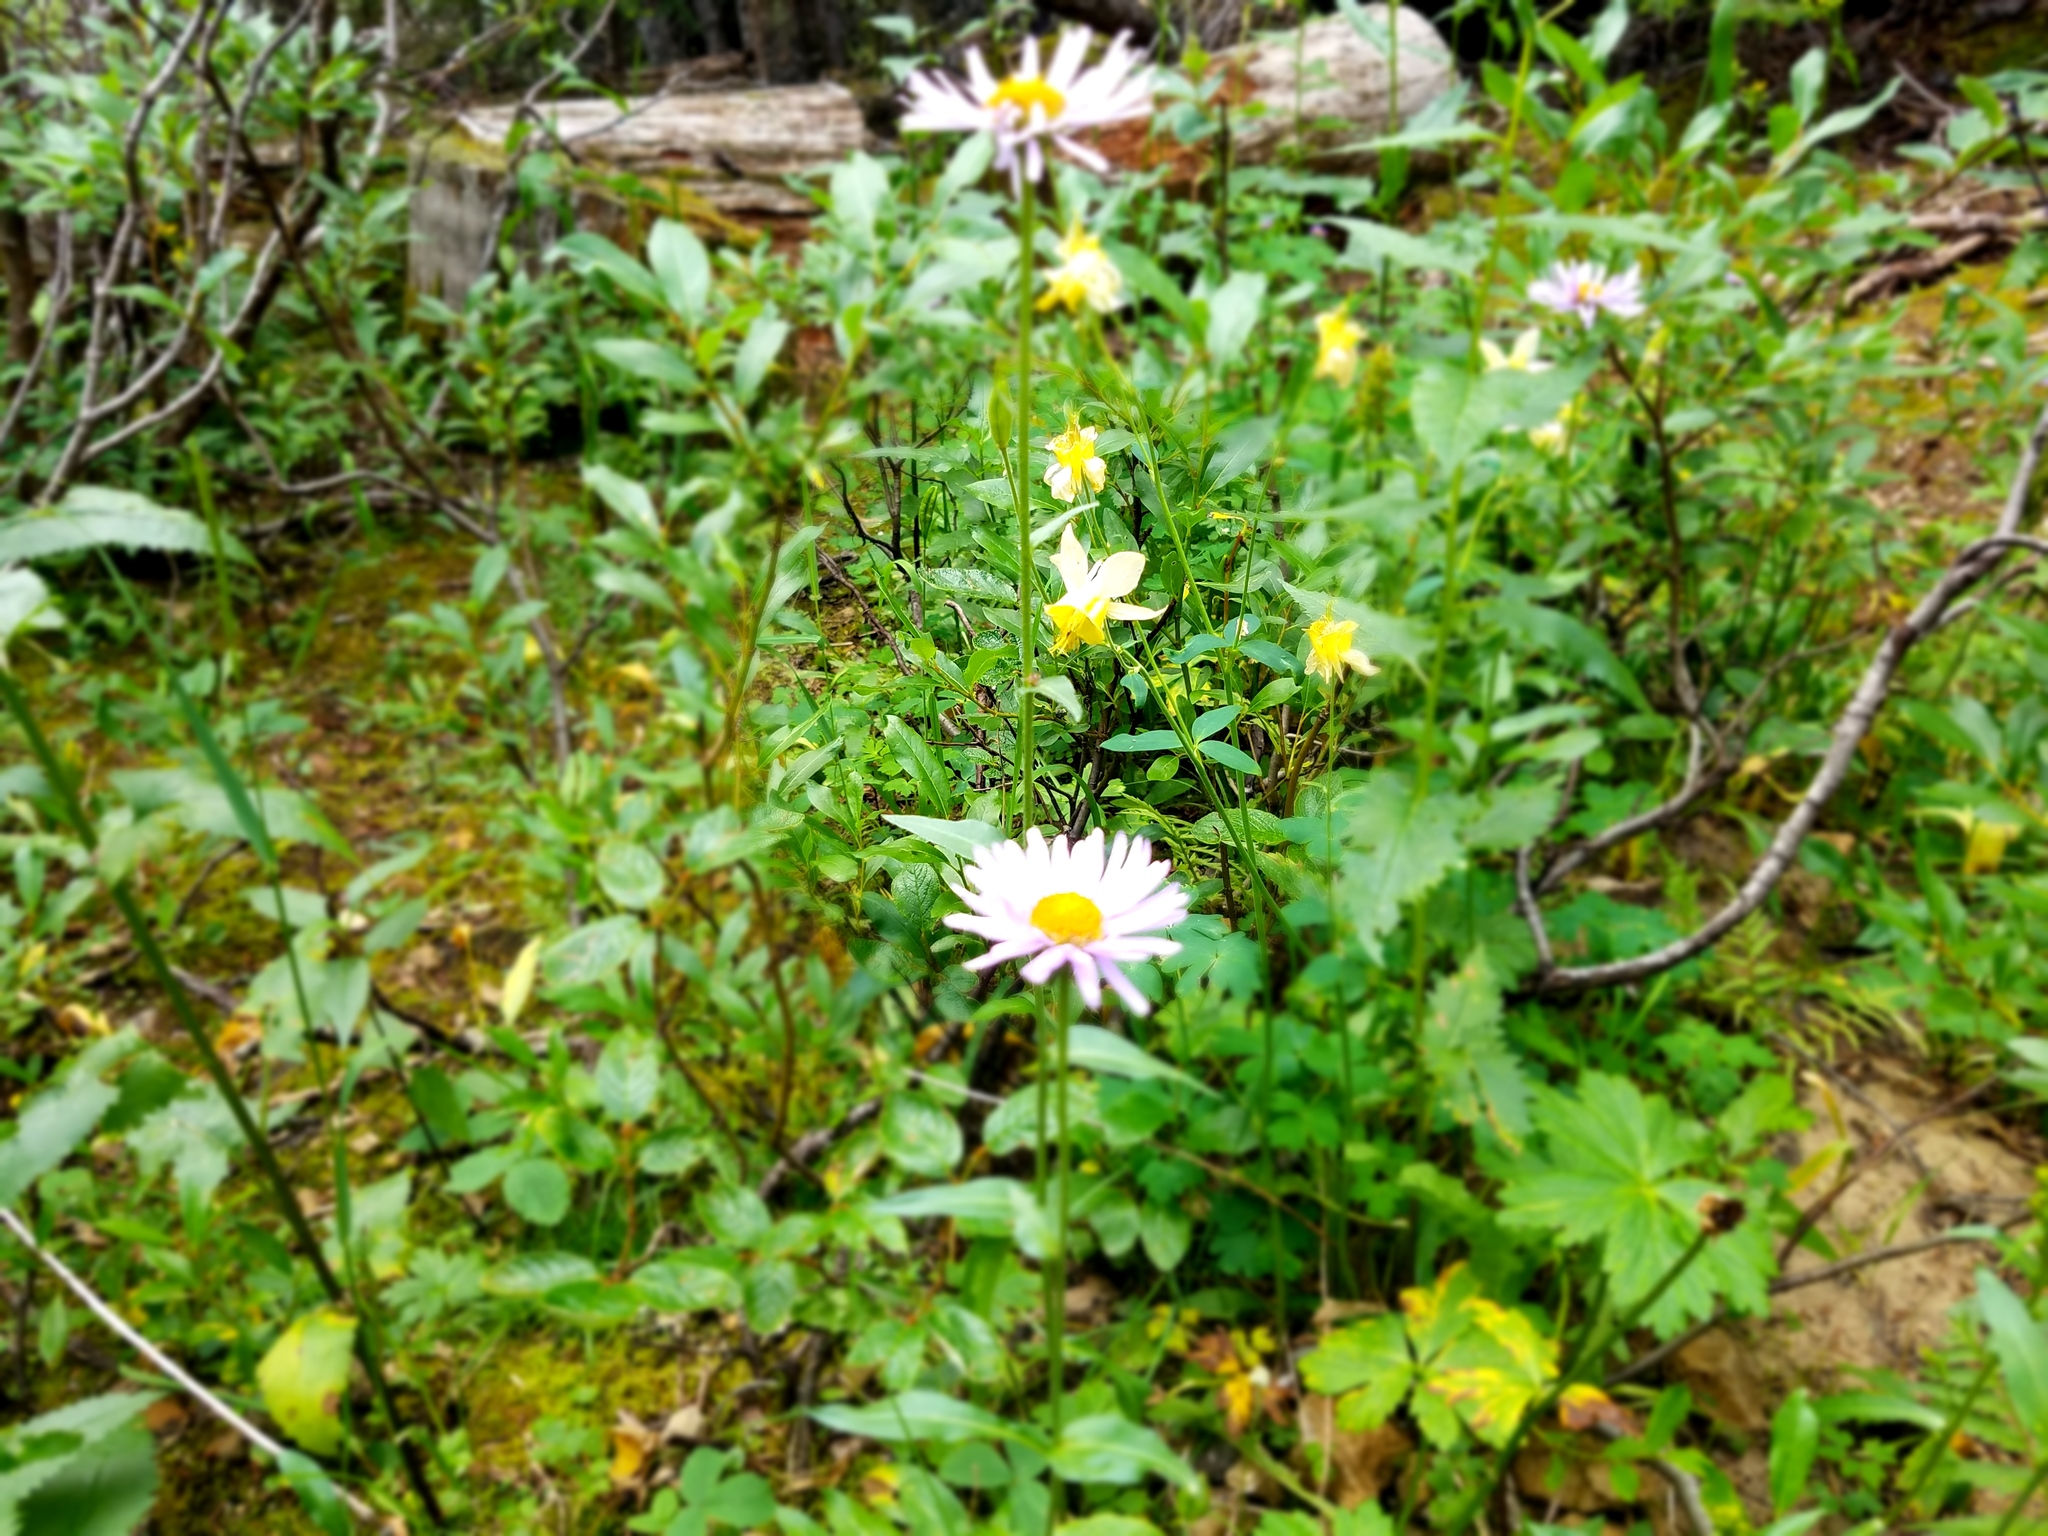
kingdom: Plantae
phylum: Tracheophyta
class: Magnoliopsida
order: Ranunculales
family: Ranunculaceae
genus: Aquilegia
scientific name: Aquilegia flavescens
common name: Yellow columbine
